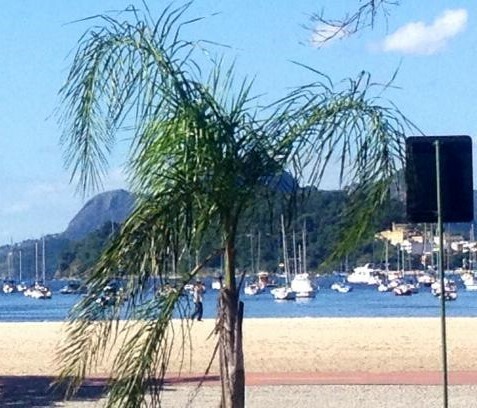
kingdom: Plantae
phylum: Tracheophyta
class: Liliopsida
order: Arecales
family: Arecaceae
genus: Syagrus
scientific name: Syagrus romanzoffiana
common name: Queen palm
